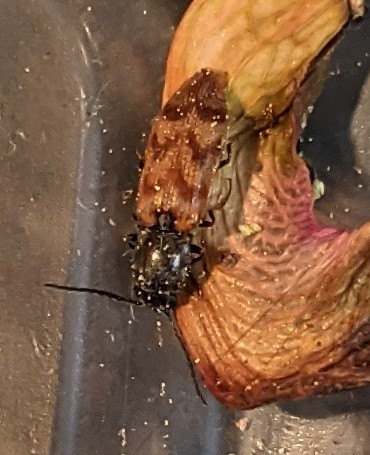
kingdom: Animalia
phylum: Arthropoda
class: Insecta
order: Coleoptera
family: Elateridae
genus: Pseudanostirus
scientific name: Pseudanostirus triundulatus
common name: Three-spotted click beetle
